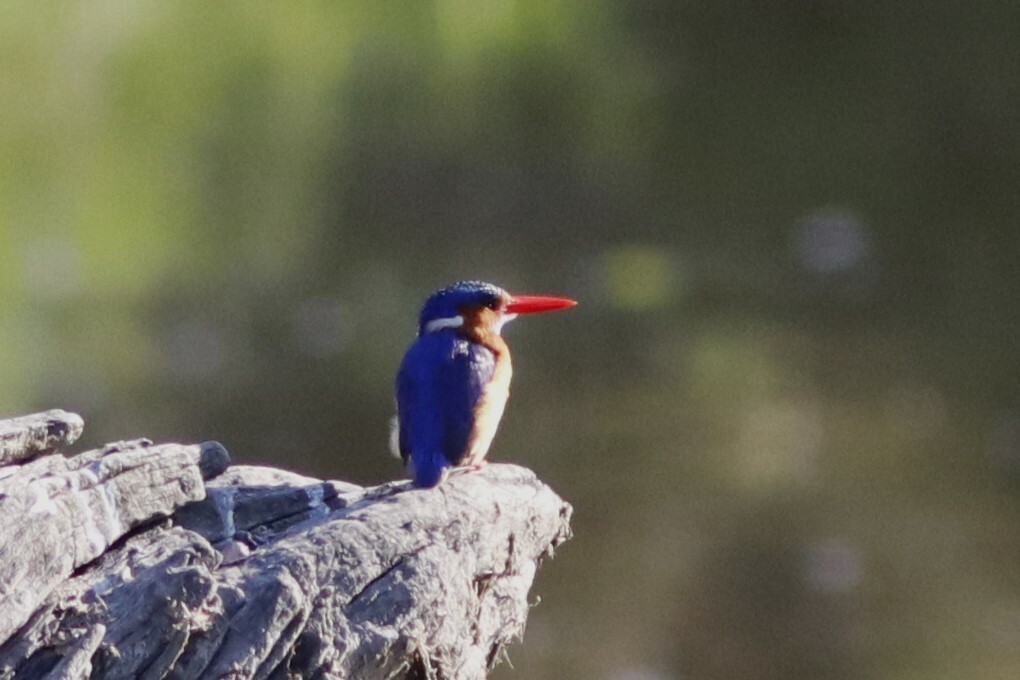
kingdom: Animalia
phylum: Chordata
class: Aves
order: Coraciiformes
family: Alcedinidae
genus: Corythornis
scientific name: Corythornis cristatus
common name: Malachite kingfisher
